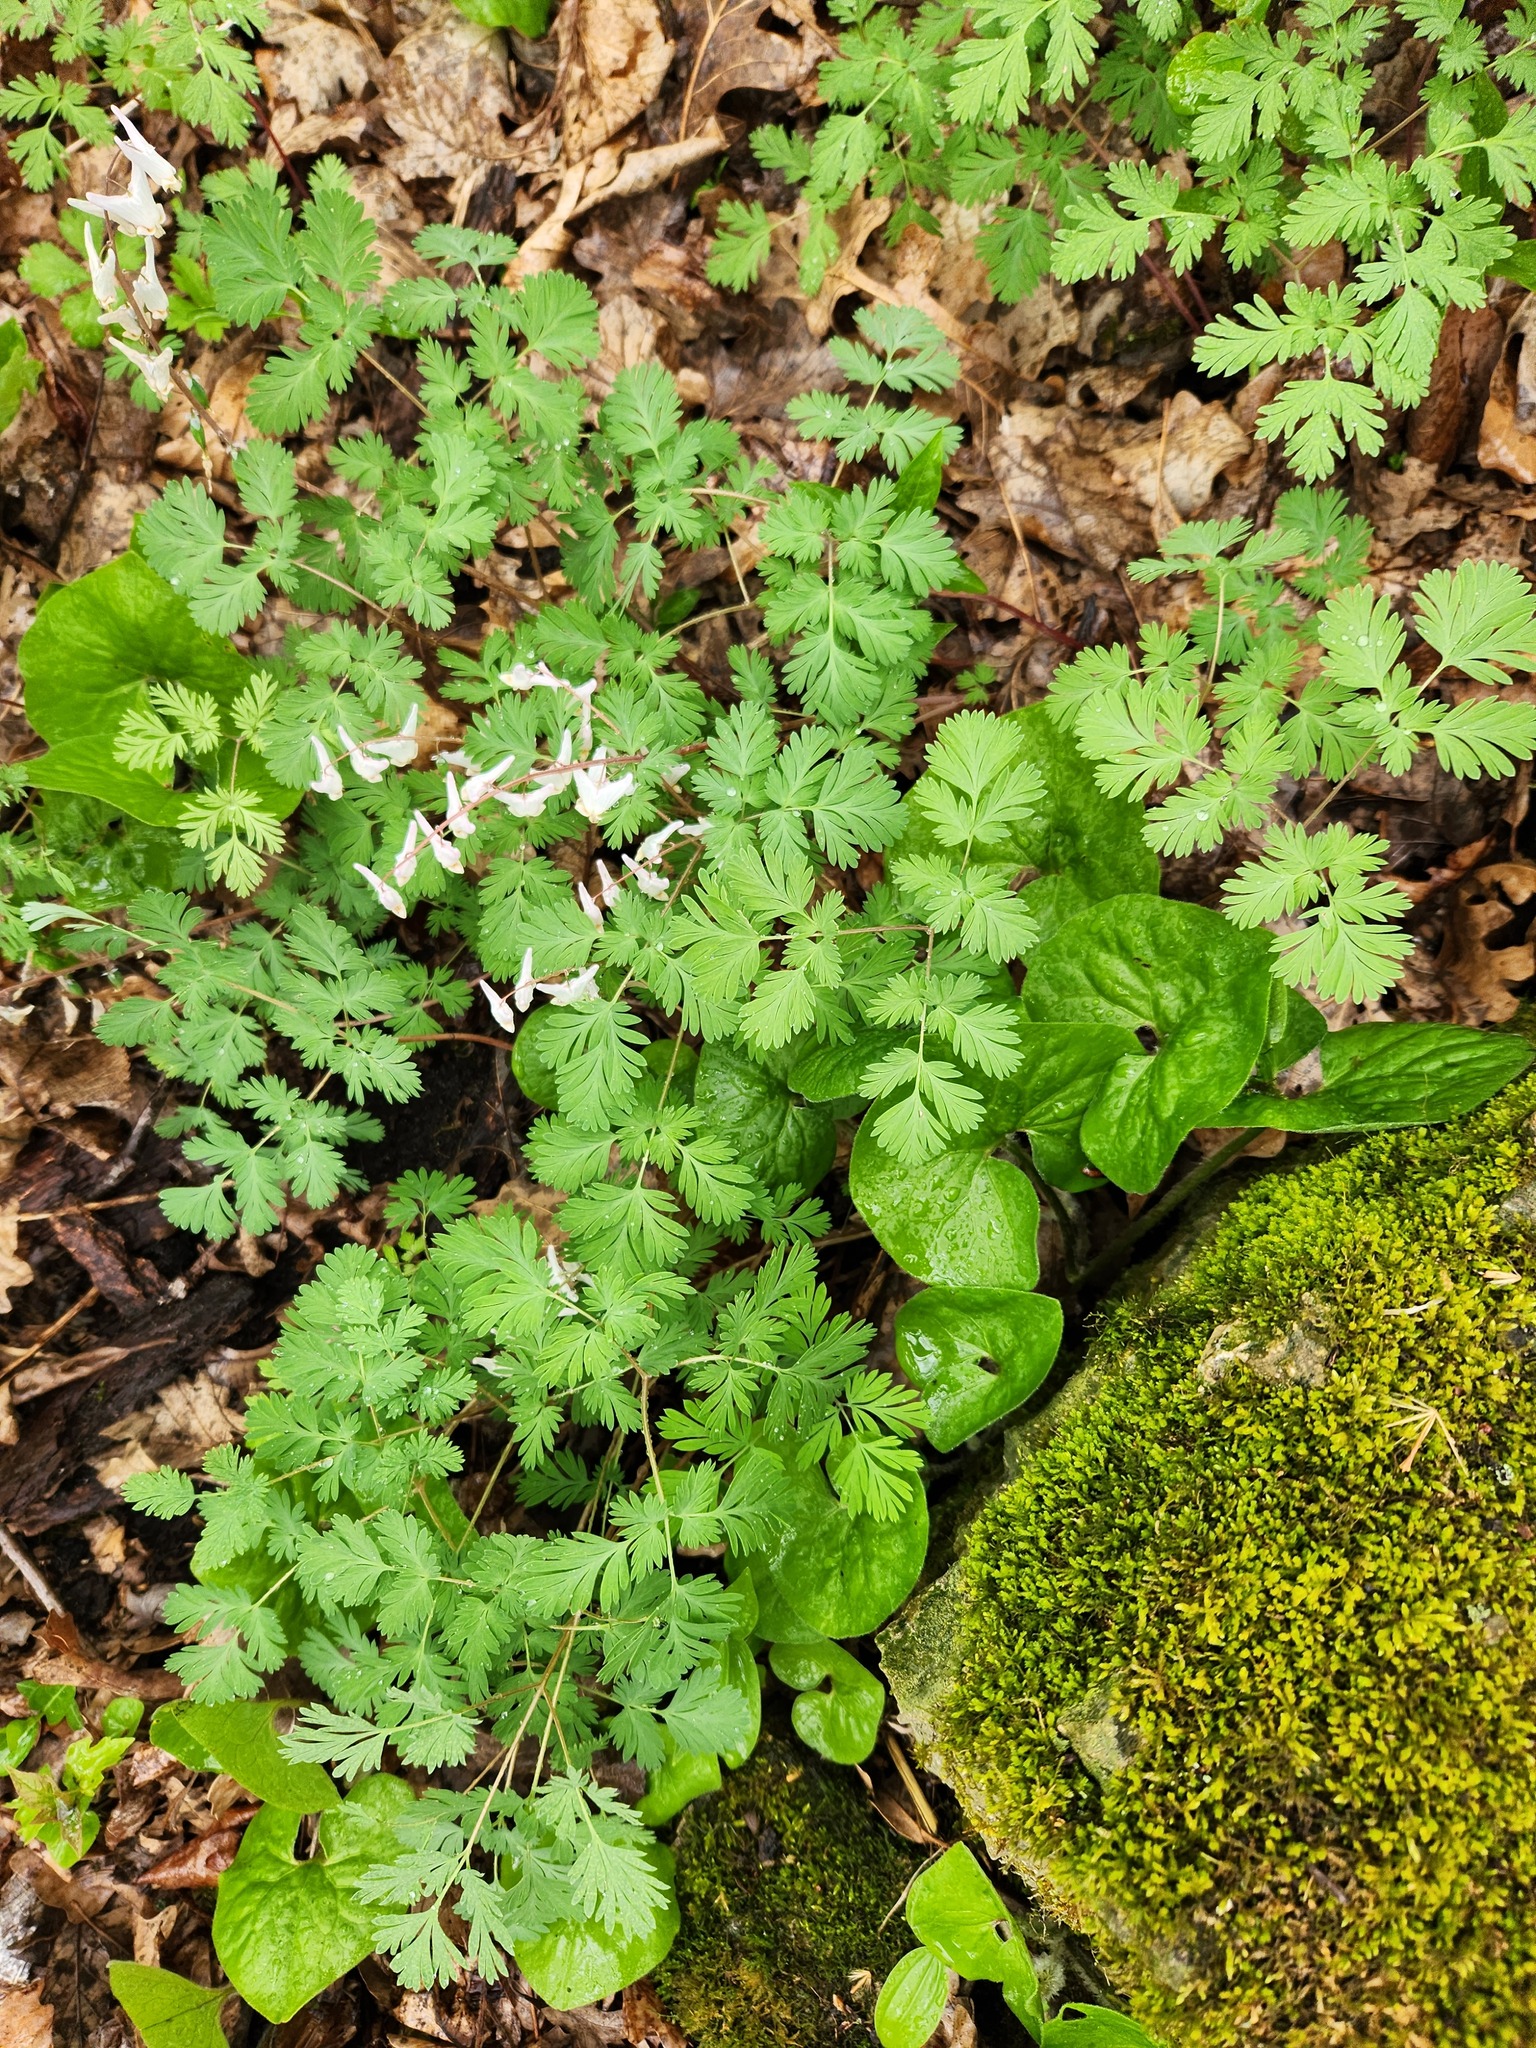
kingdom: Plantae
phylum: Tracheophyta
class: Magnoliopsida
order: Ranunculales
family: Papaveraceae
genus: Dicentra
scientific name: Dicentra cucullaria
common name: Dutchman's breeches
